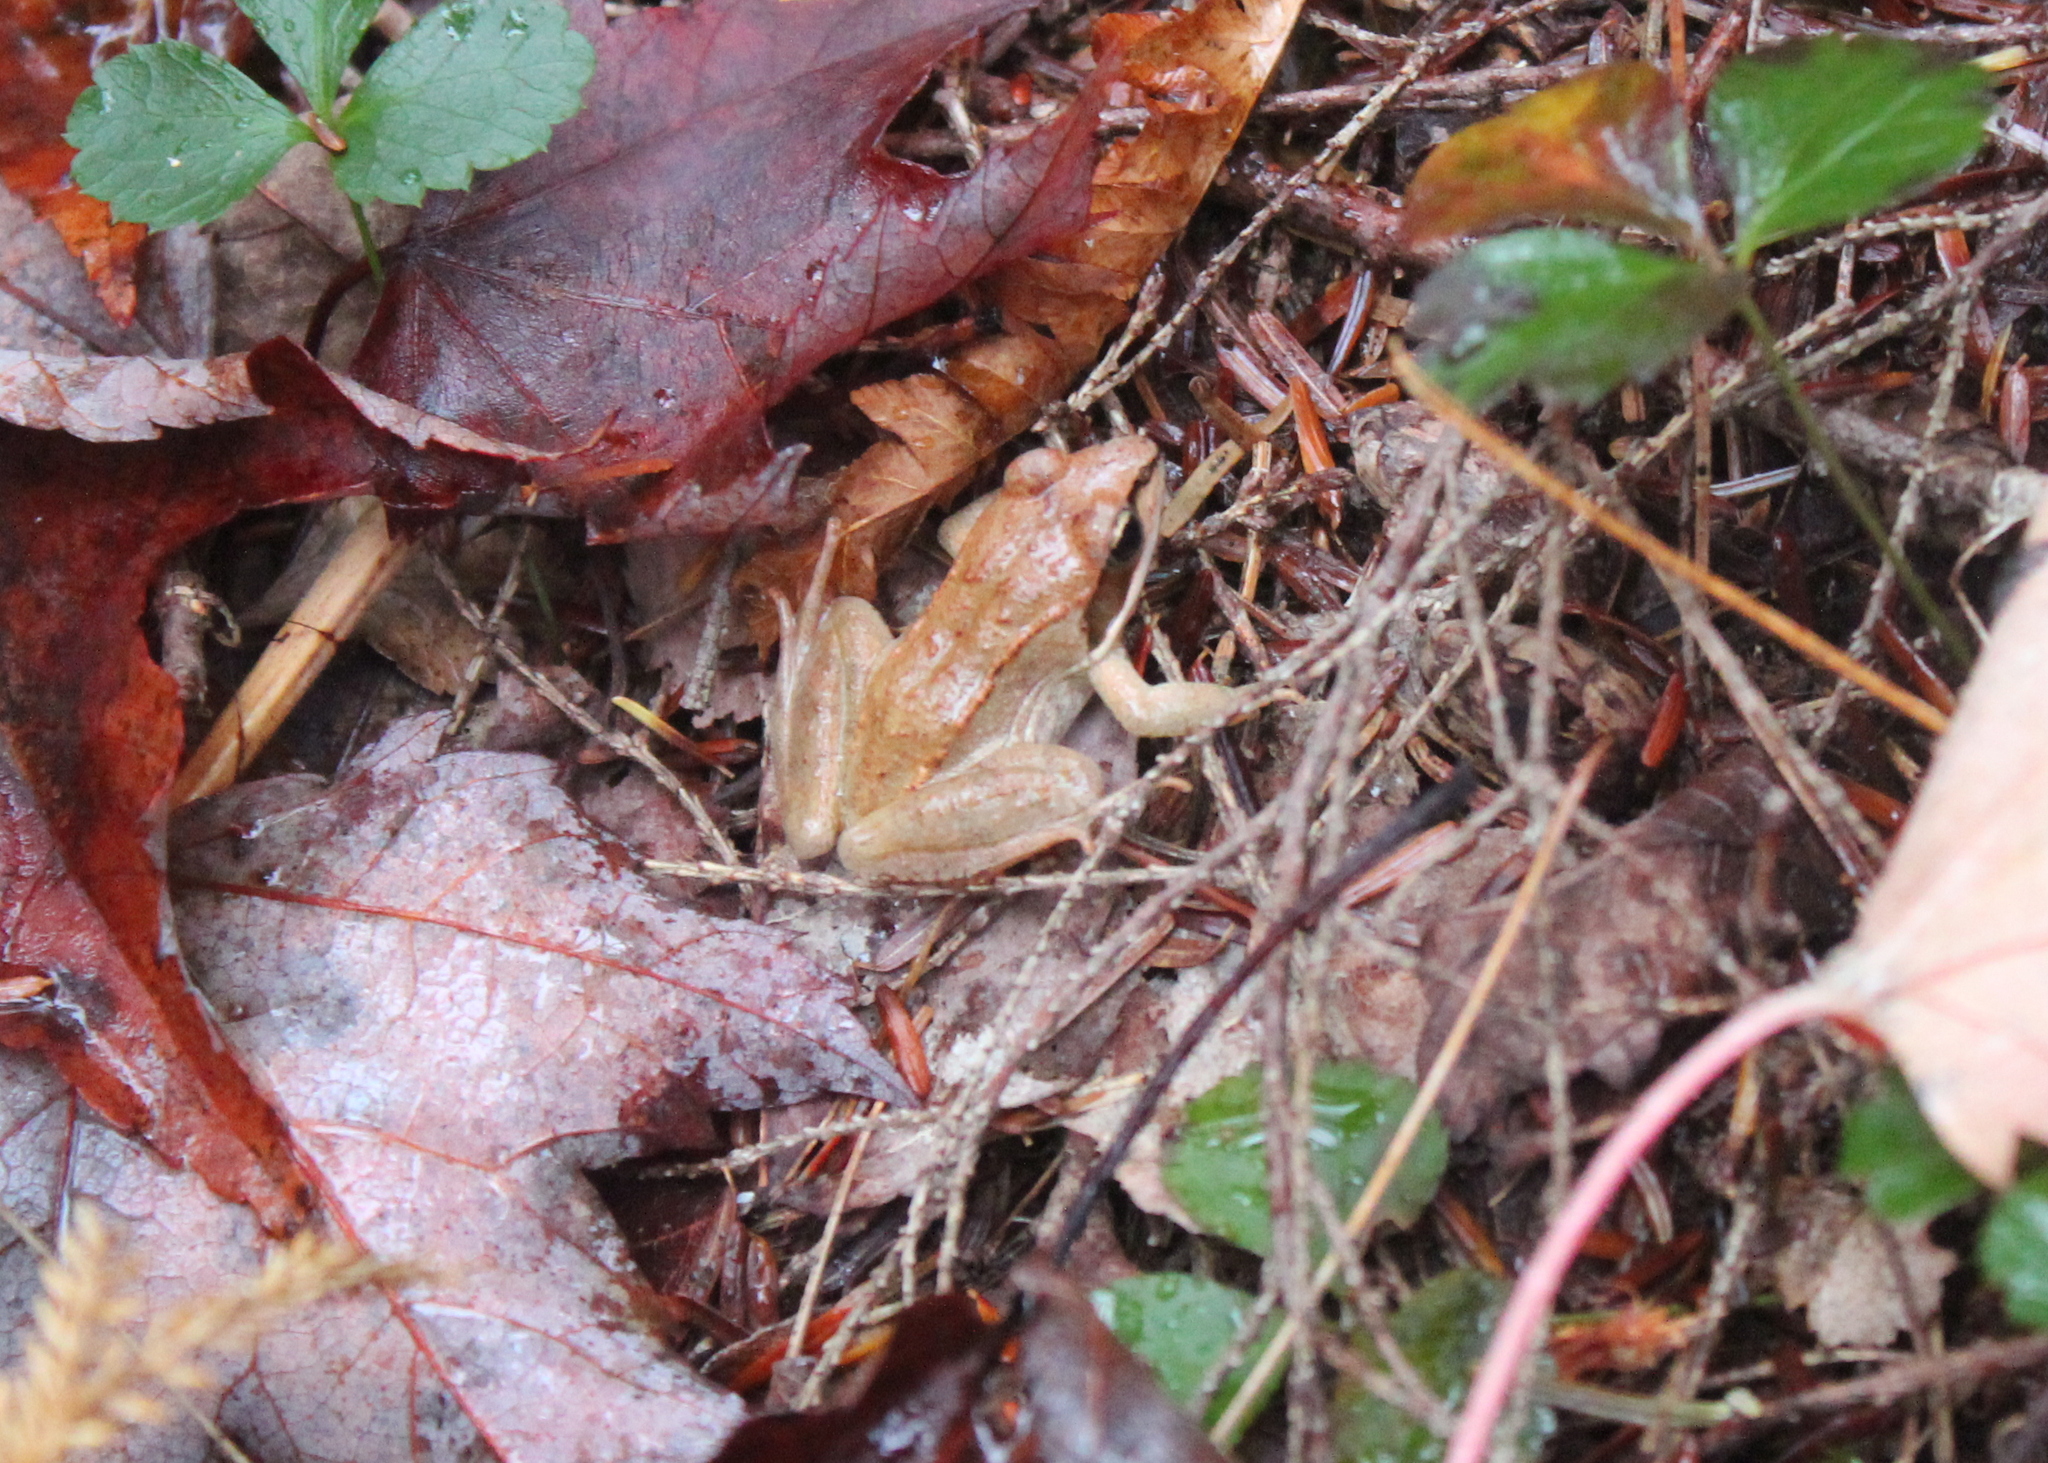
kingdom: Animalia
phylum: Chordata
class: Amphibia
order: Anura
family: Ranidae
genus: Lithobates
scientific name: Lithobates sylvaticus
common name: Wood frog
